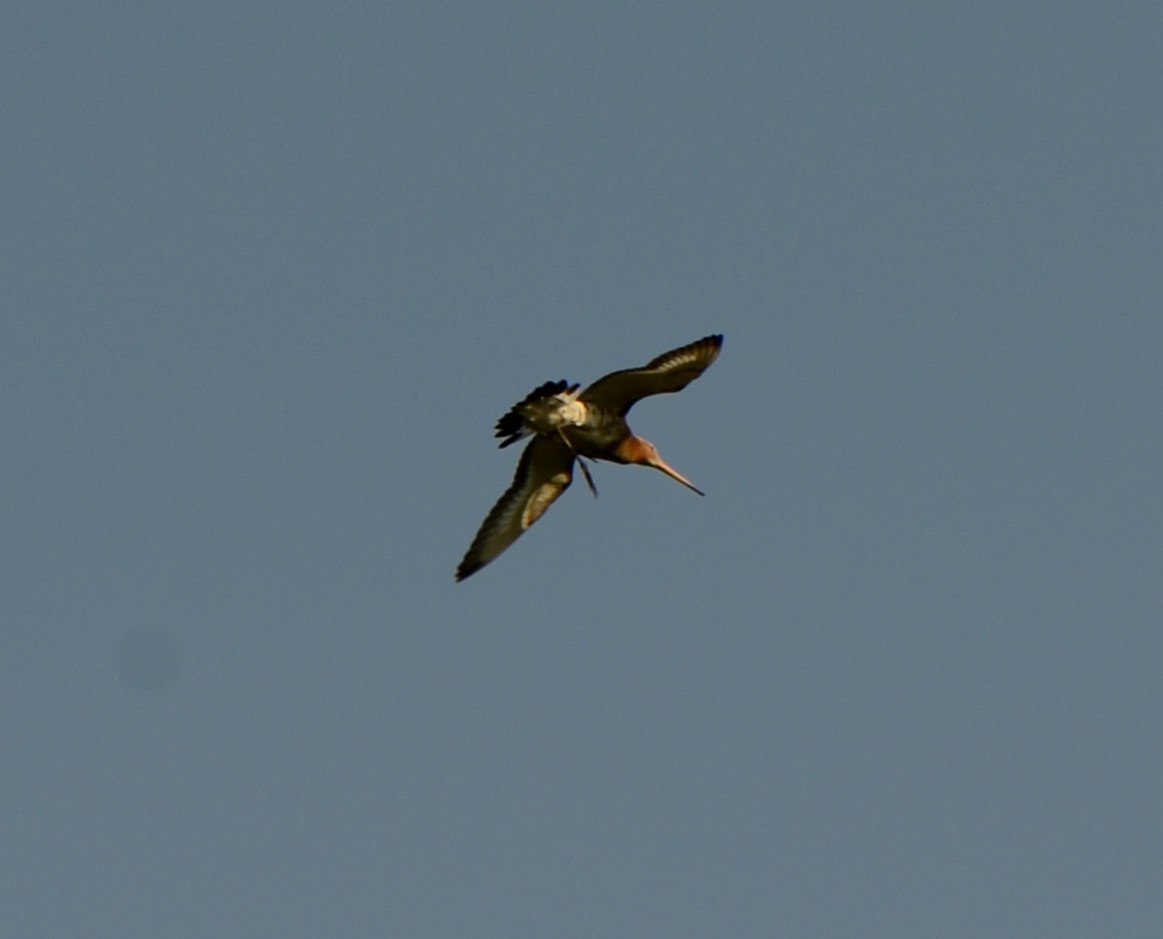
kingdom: Animalia
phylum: Chordata
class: Aves
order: Charadriiformes
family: Scolopacidae
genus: Limosa
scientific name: Limosa limosa
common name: Black-tailed godwit
